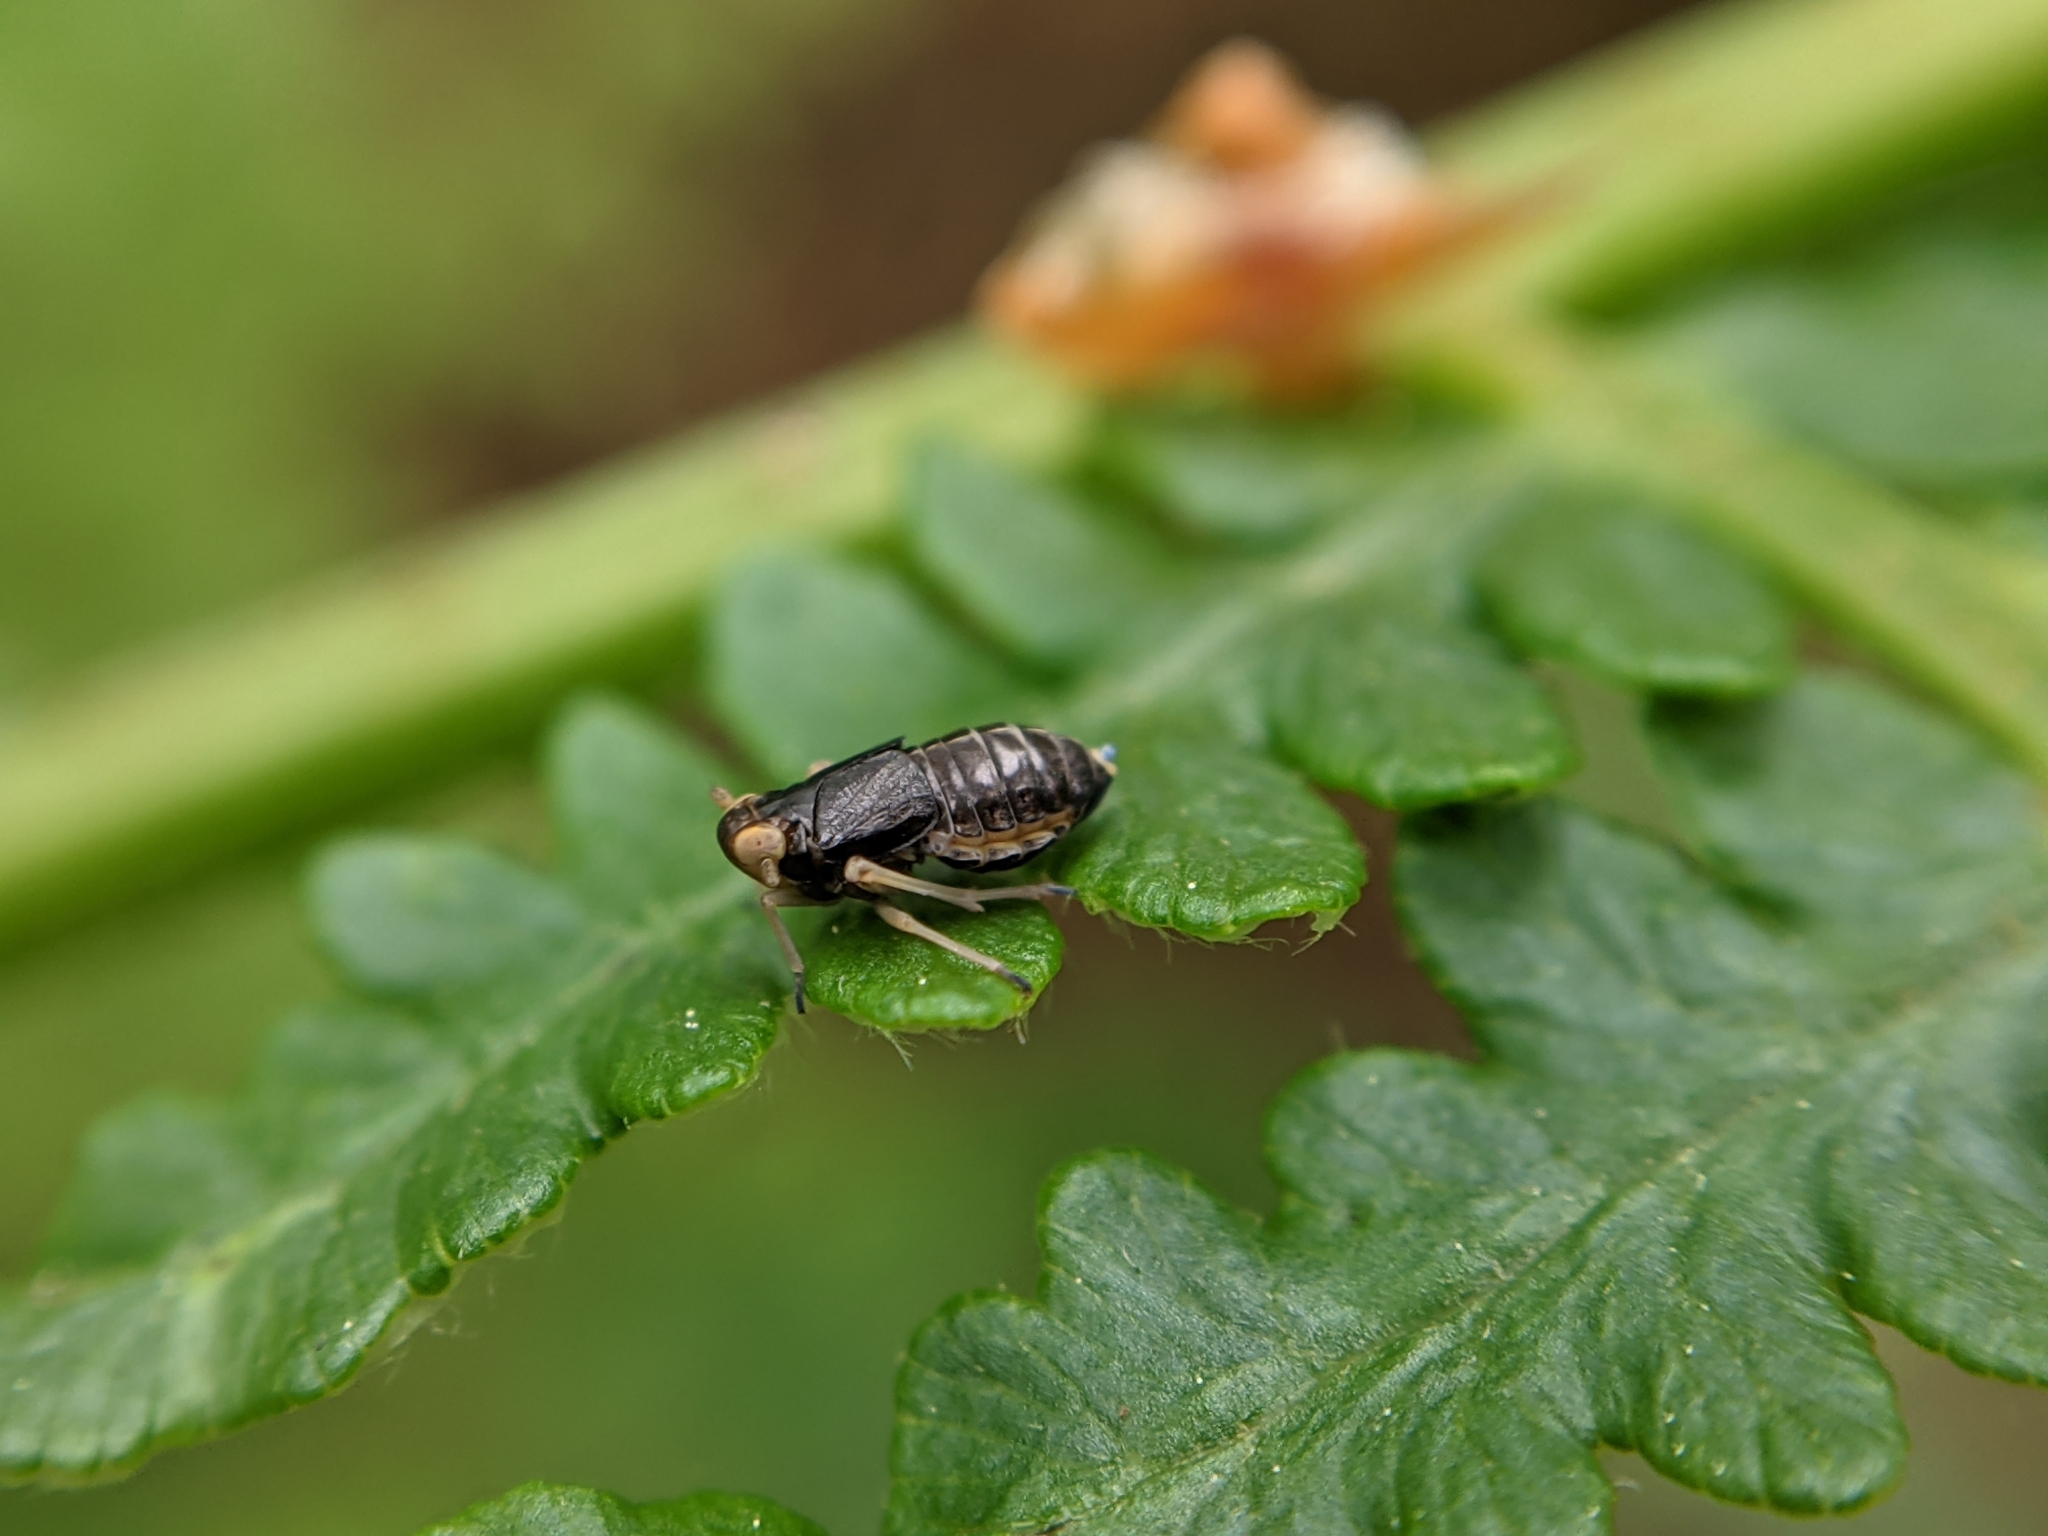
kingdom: Animalia
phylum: Arthropoda
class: Insecta
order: Hemiptera
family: Delphacidae
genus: Ditropis
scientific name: Ditropis pteridis
